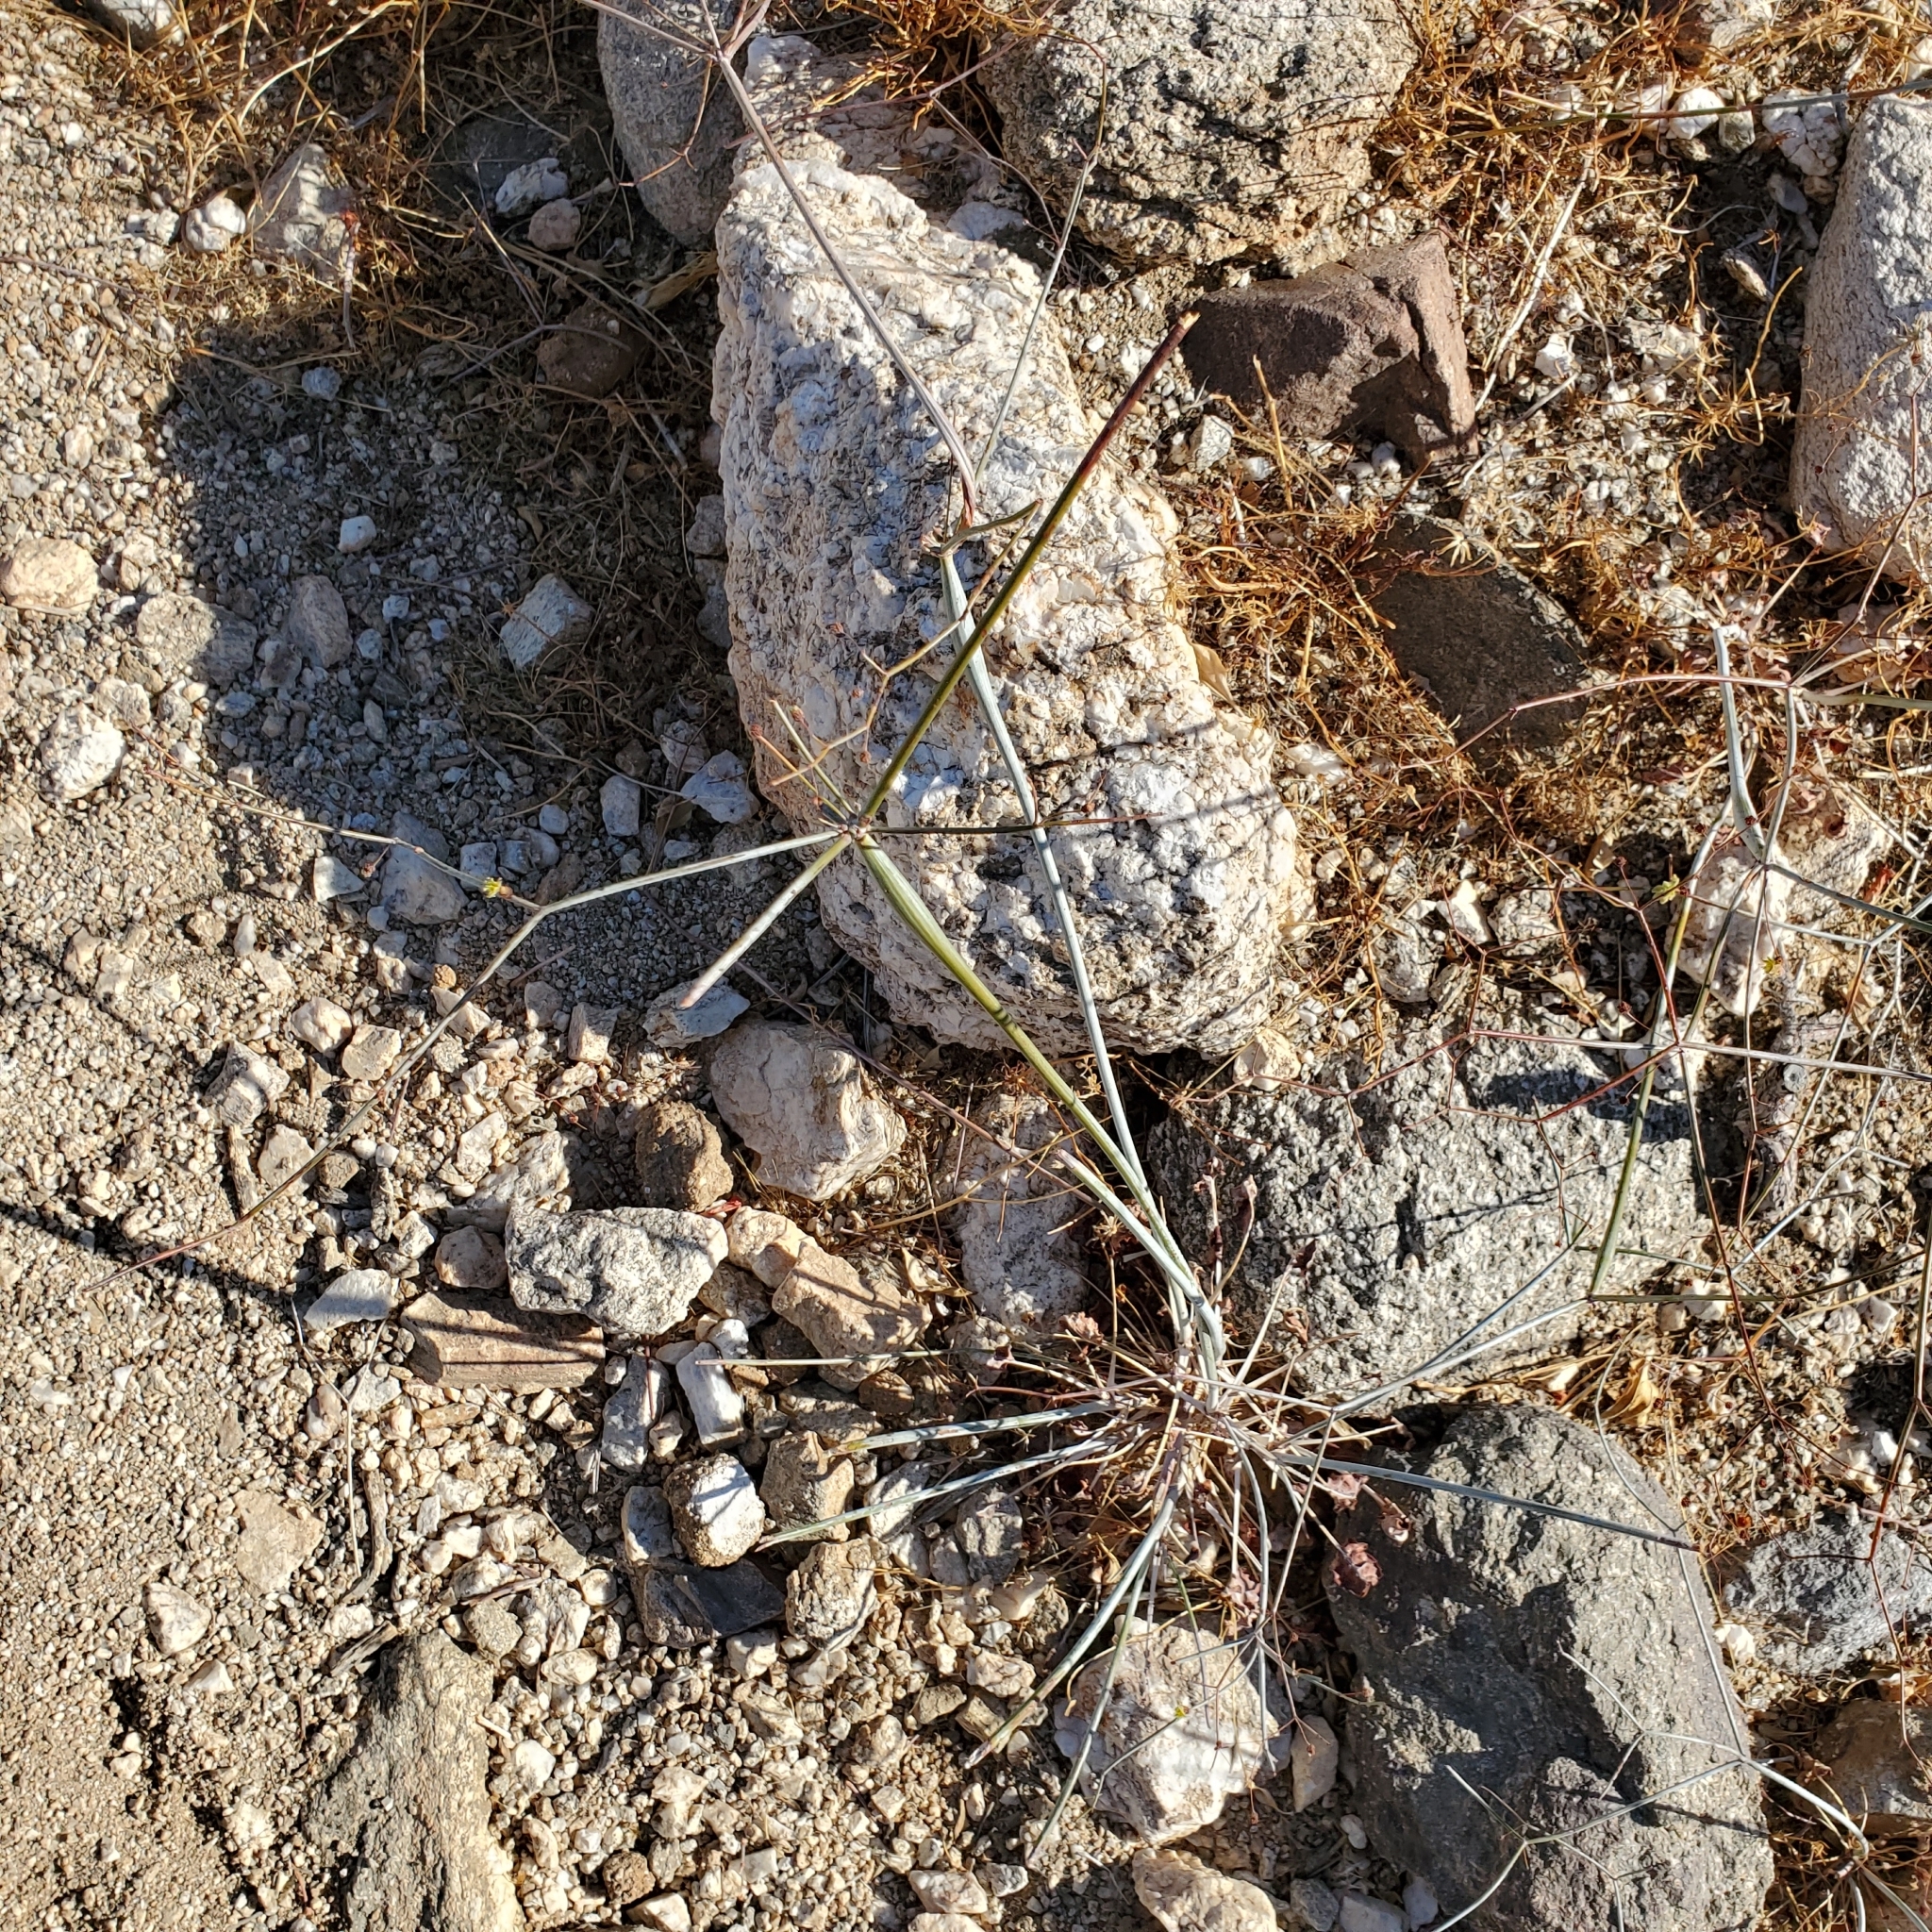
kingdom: Plantae
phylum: Tracheophyta
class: Magnoliopsida
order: Caryophyllales
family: Polygonaceae
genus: Eriogonum
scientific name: Eriogonum inflatum
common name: Desert trumpet
